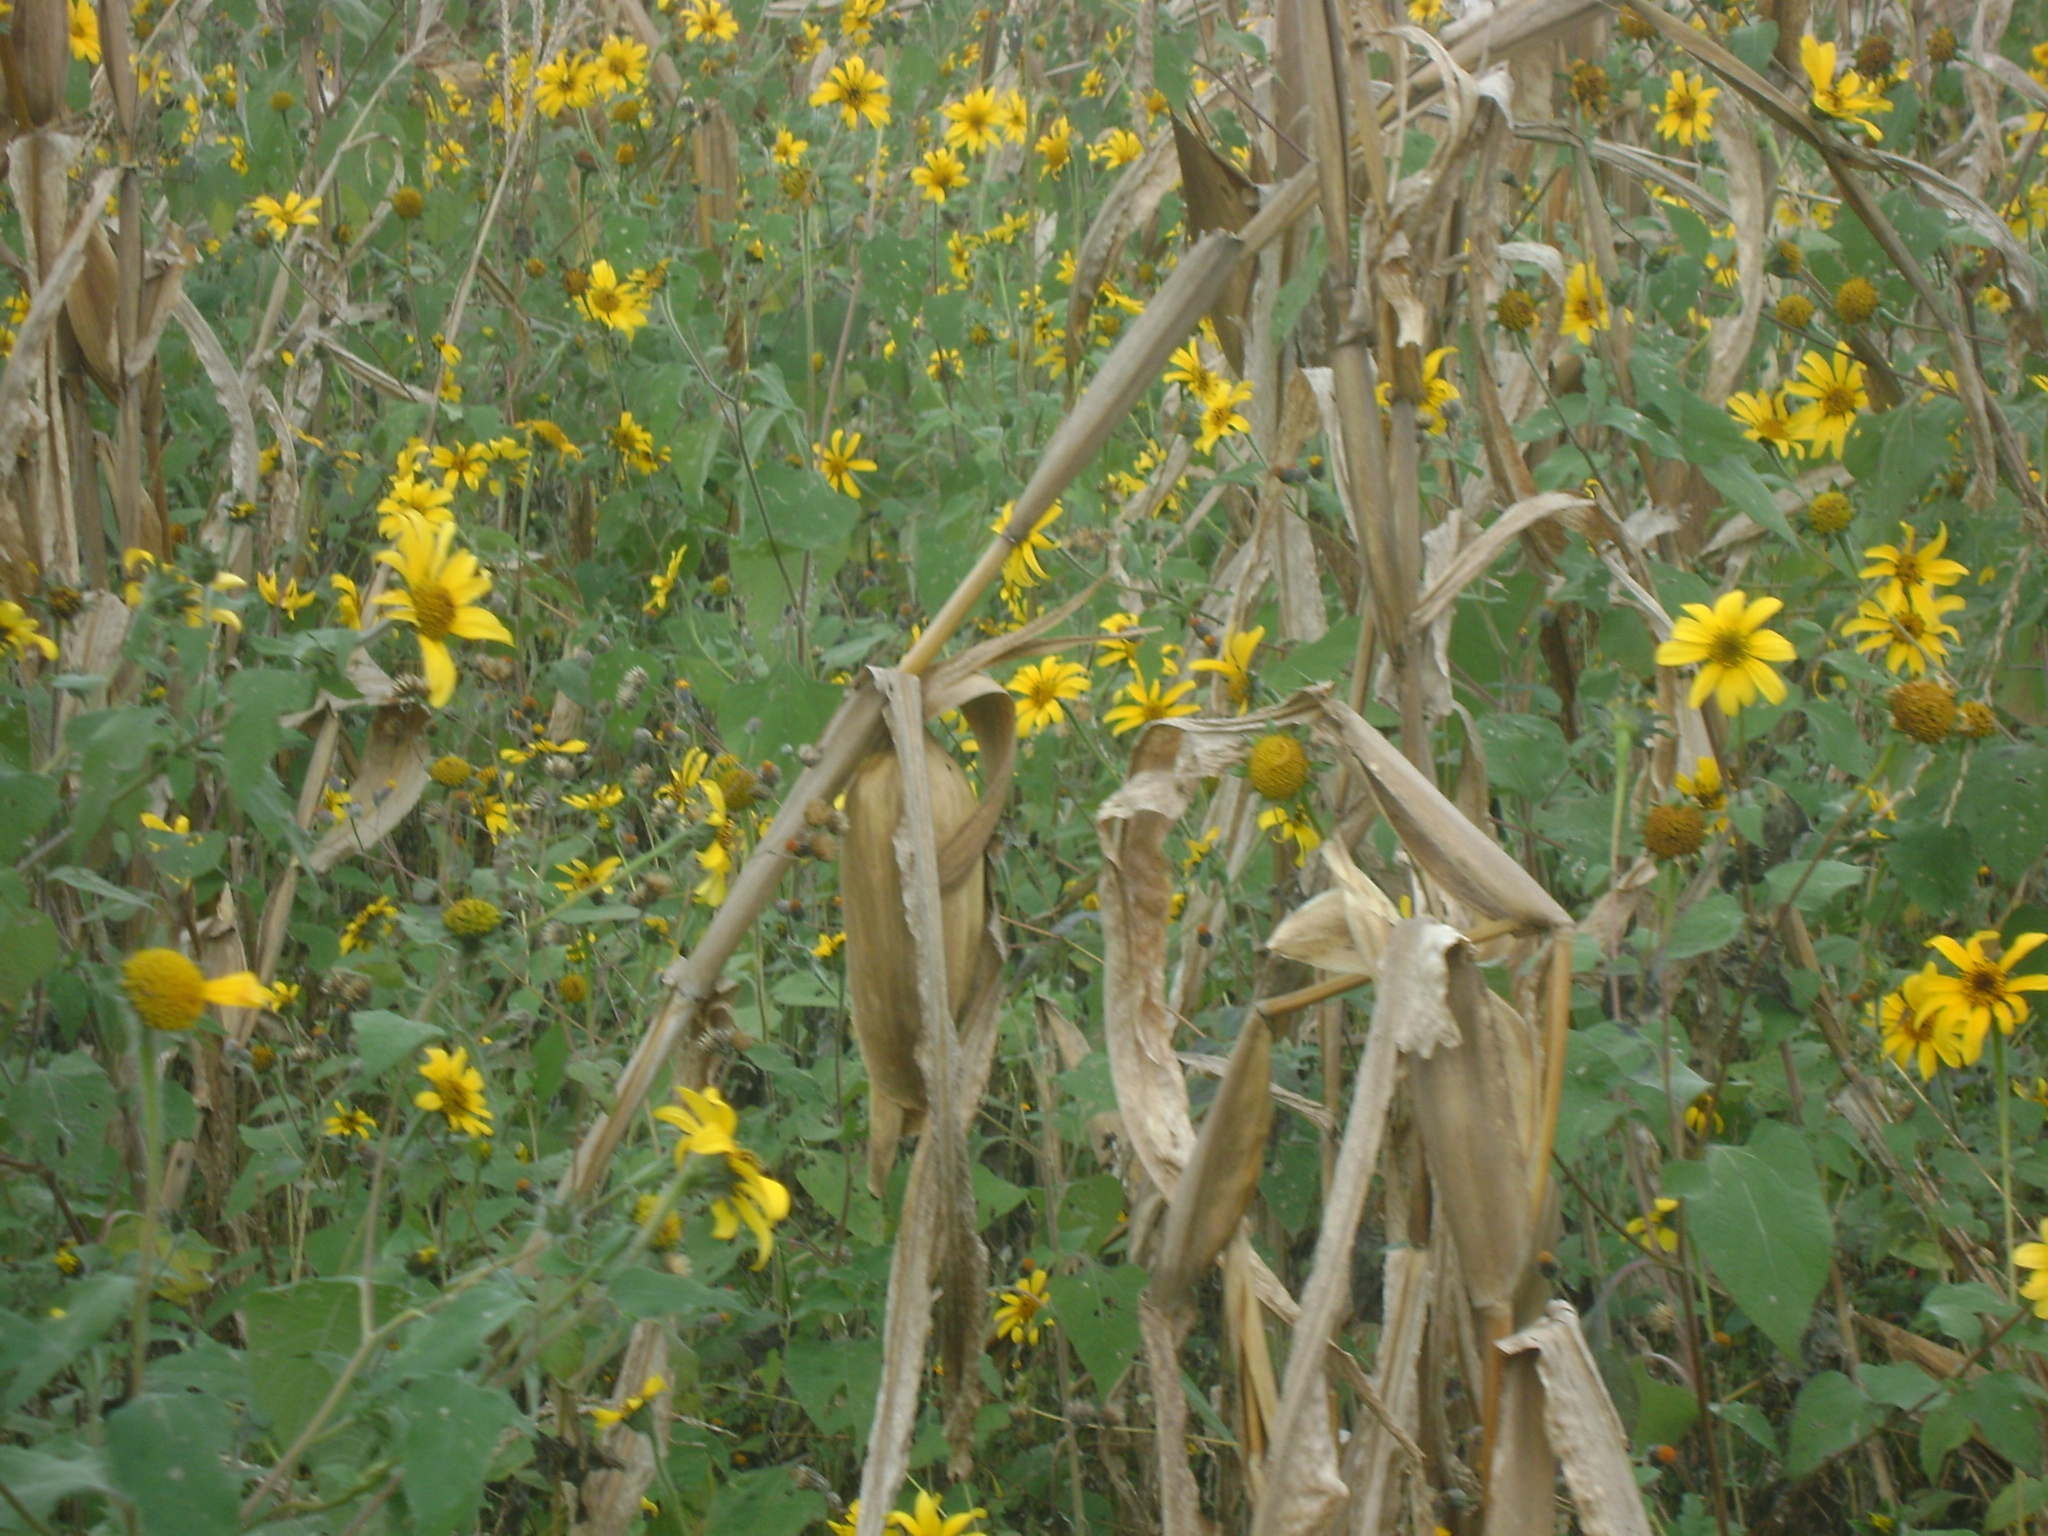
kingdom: Plantae
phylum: Tracheophyta
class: Magnoliopsida
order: Asterales
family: Asteraceae
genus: Tithonia
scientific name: Tithonia tubaeformis
